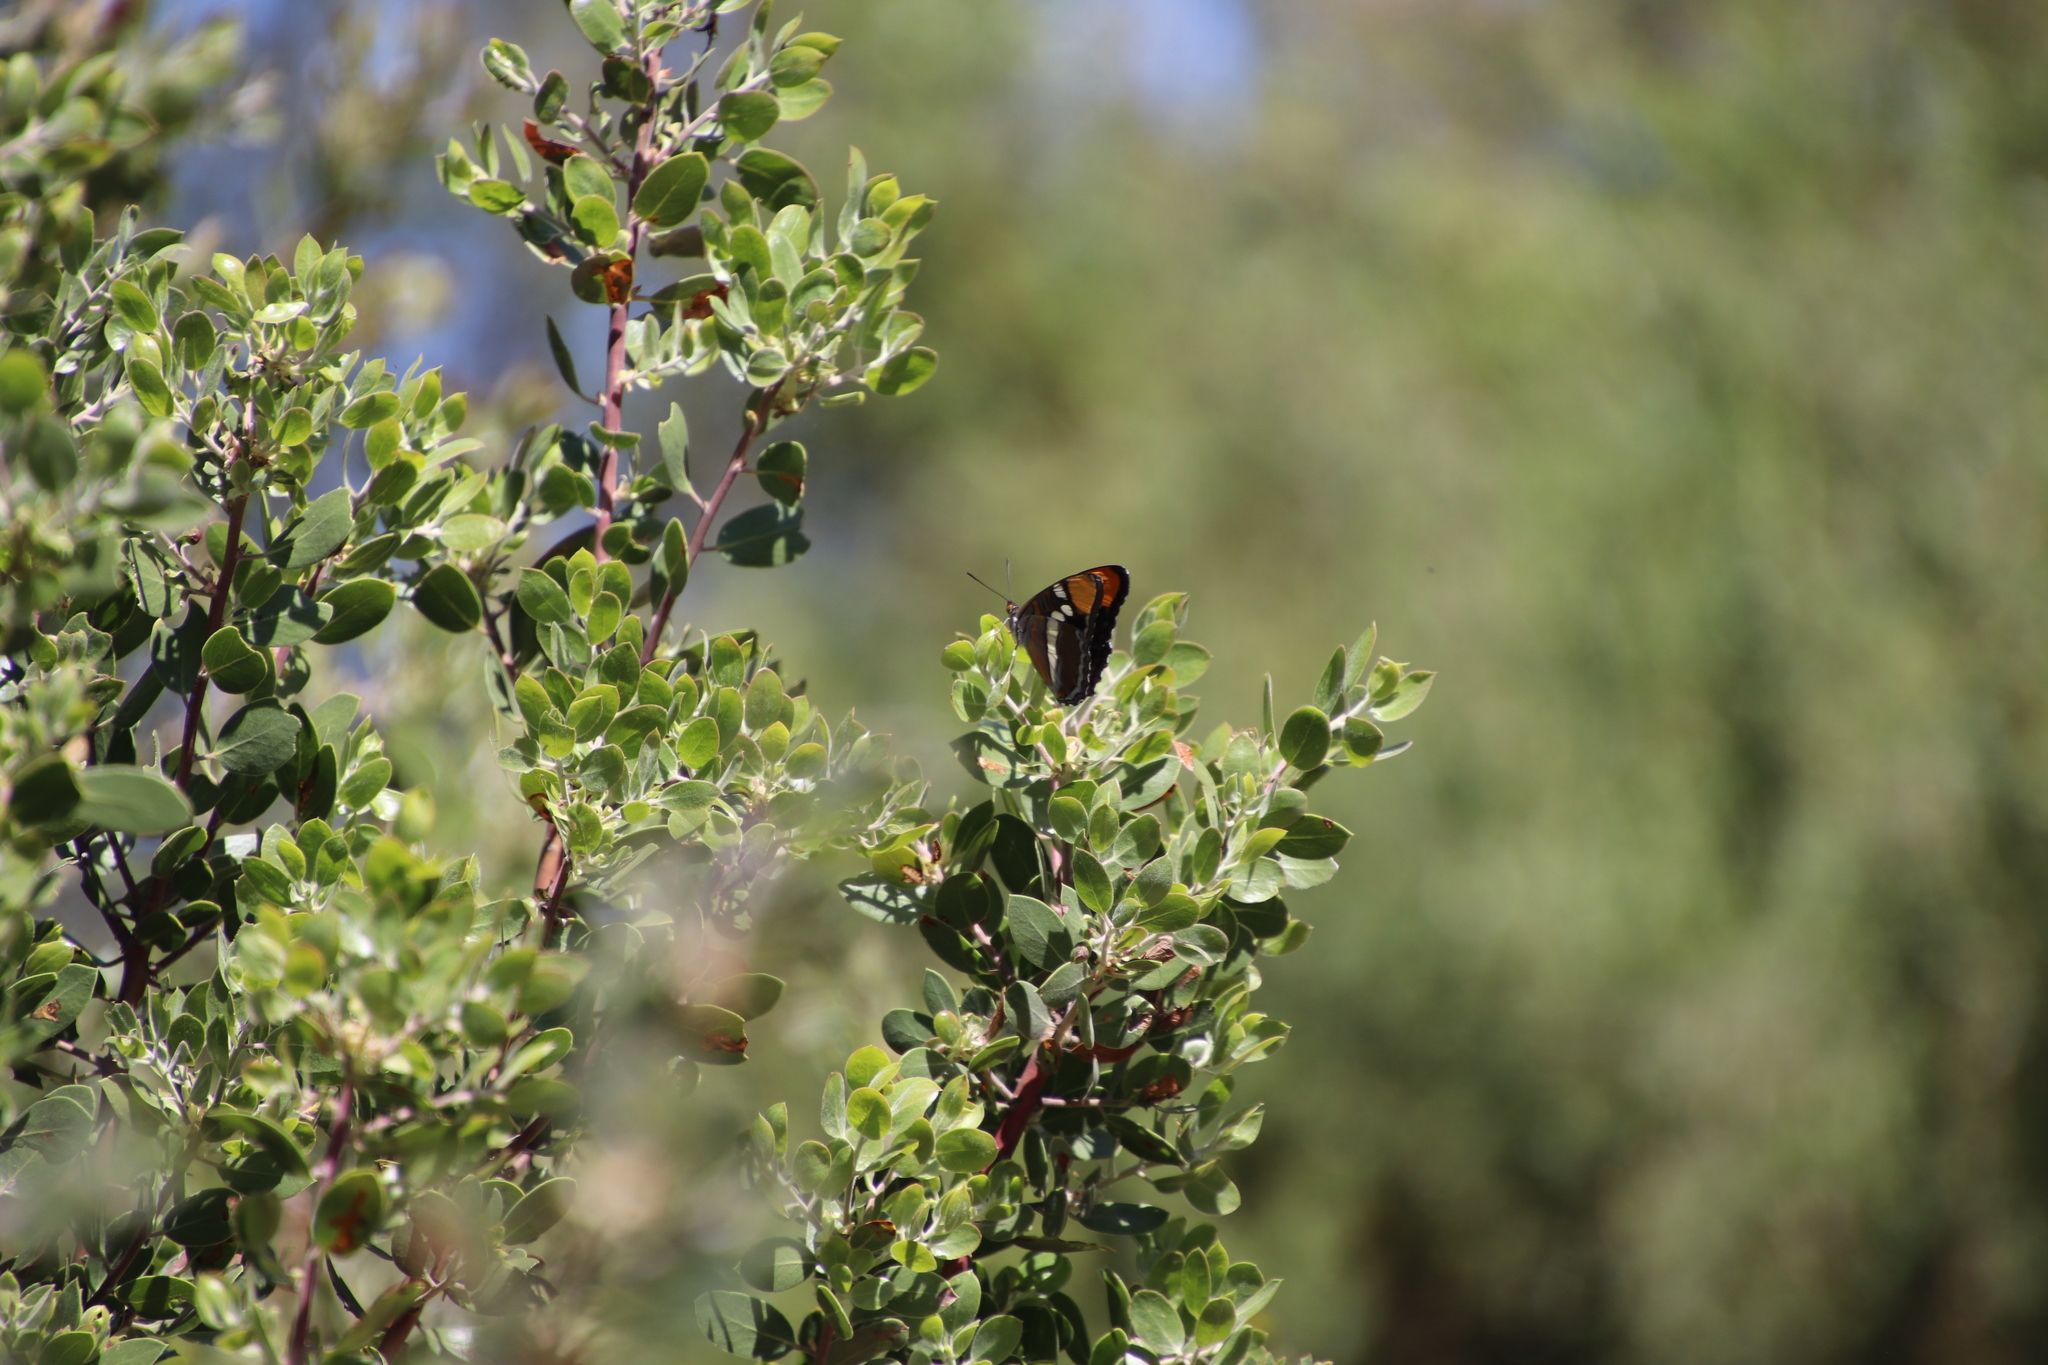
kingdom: Animalia
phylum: Arthropoda
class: Insecta
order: Lepidoptera
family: Nymphalidae
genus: Limenitis
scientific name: Limenitis bredowii
